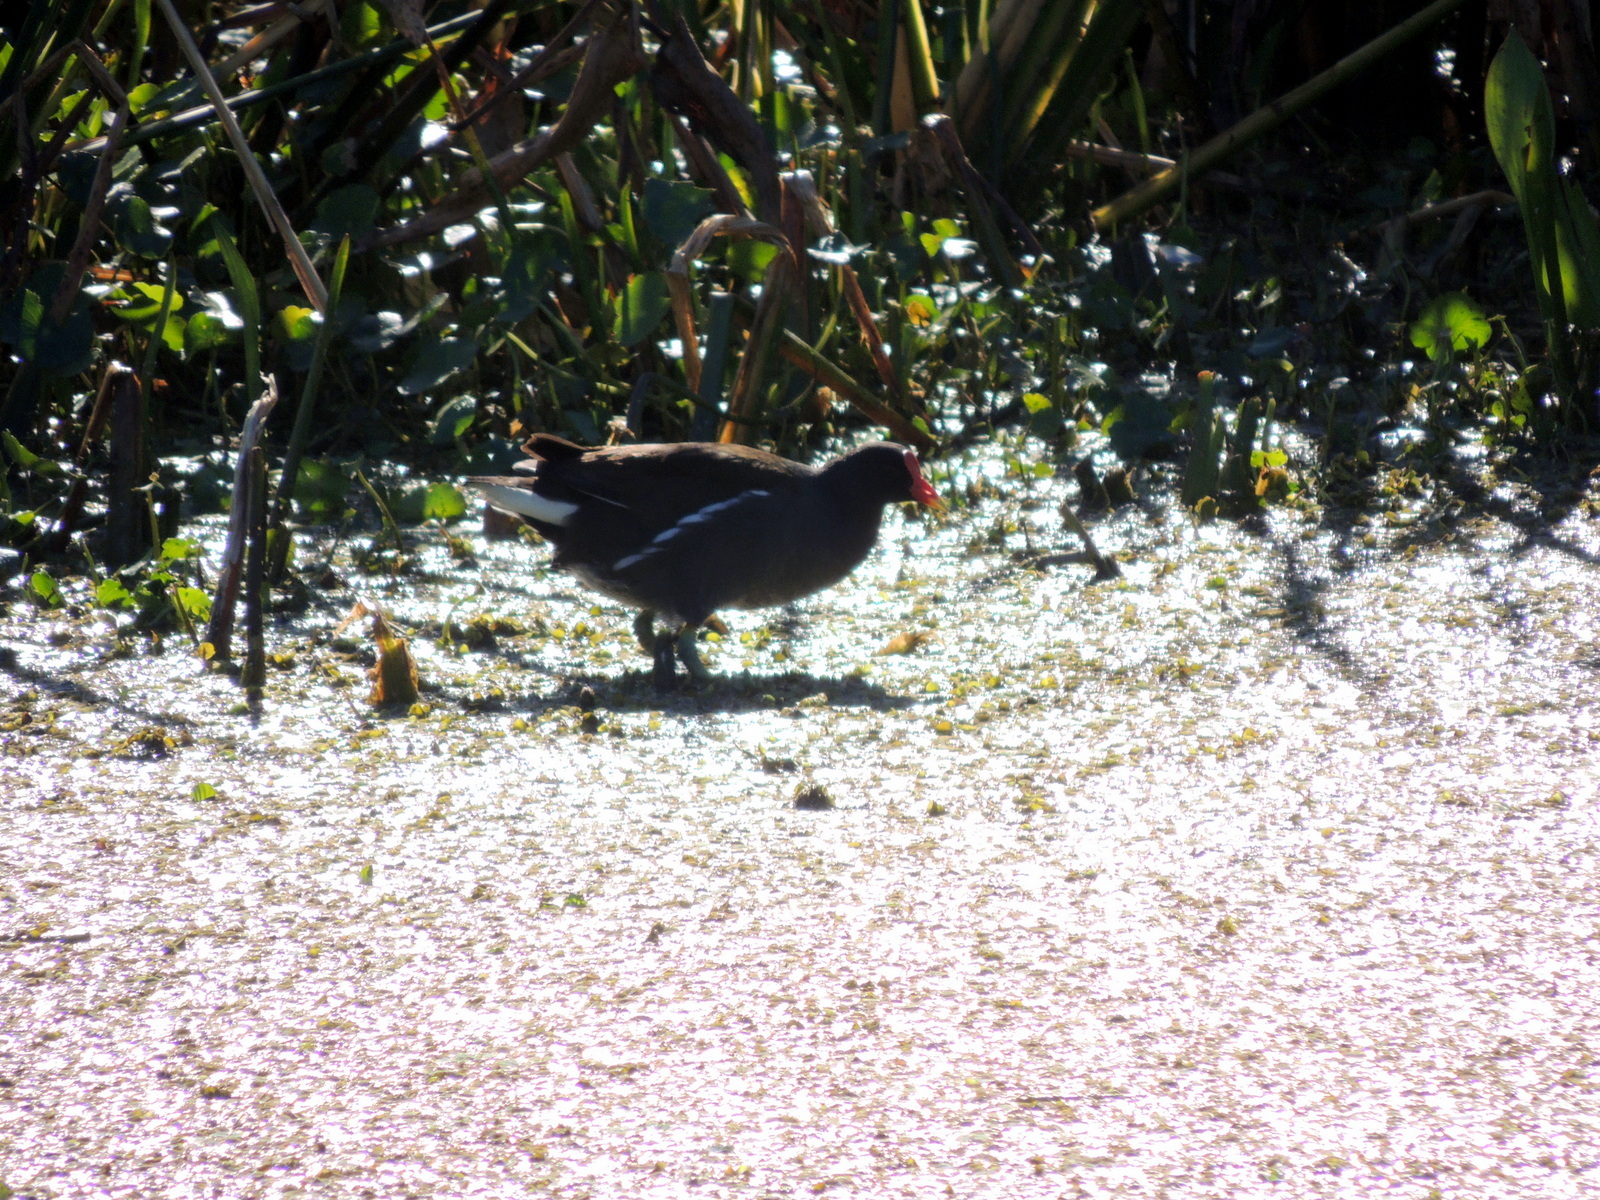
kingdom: Animalia
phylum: Chordata
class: Aves
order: Gruiformes
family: Rallidae
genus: Gallinula
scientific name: Gallinula chloropus
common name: Common moorhen
